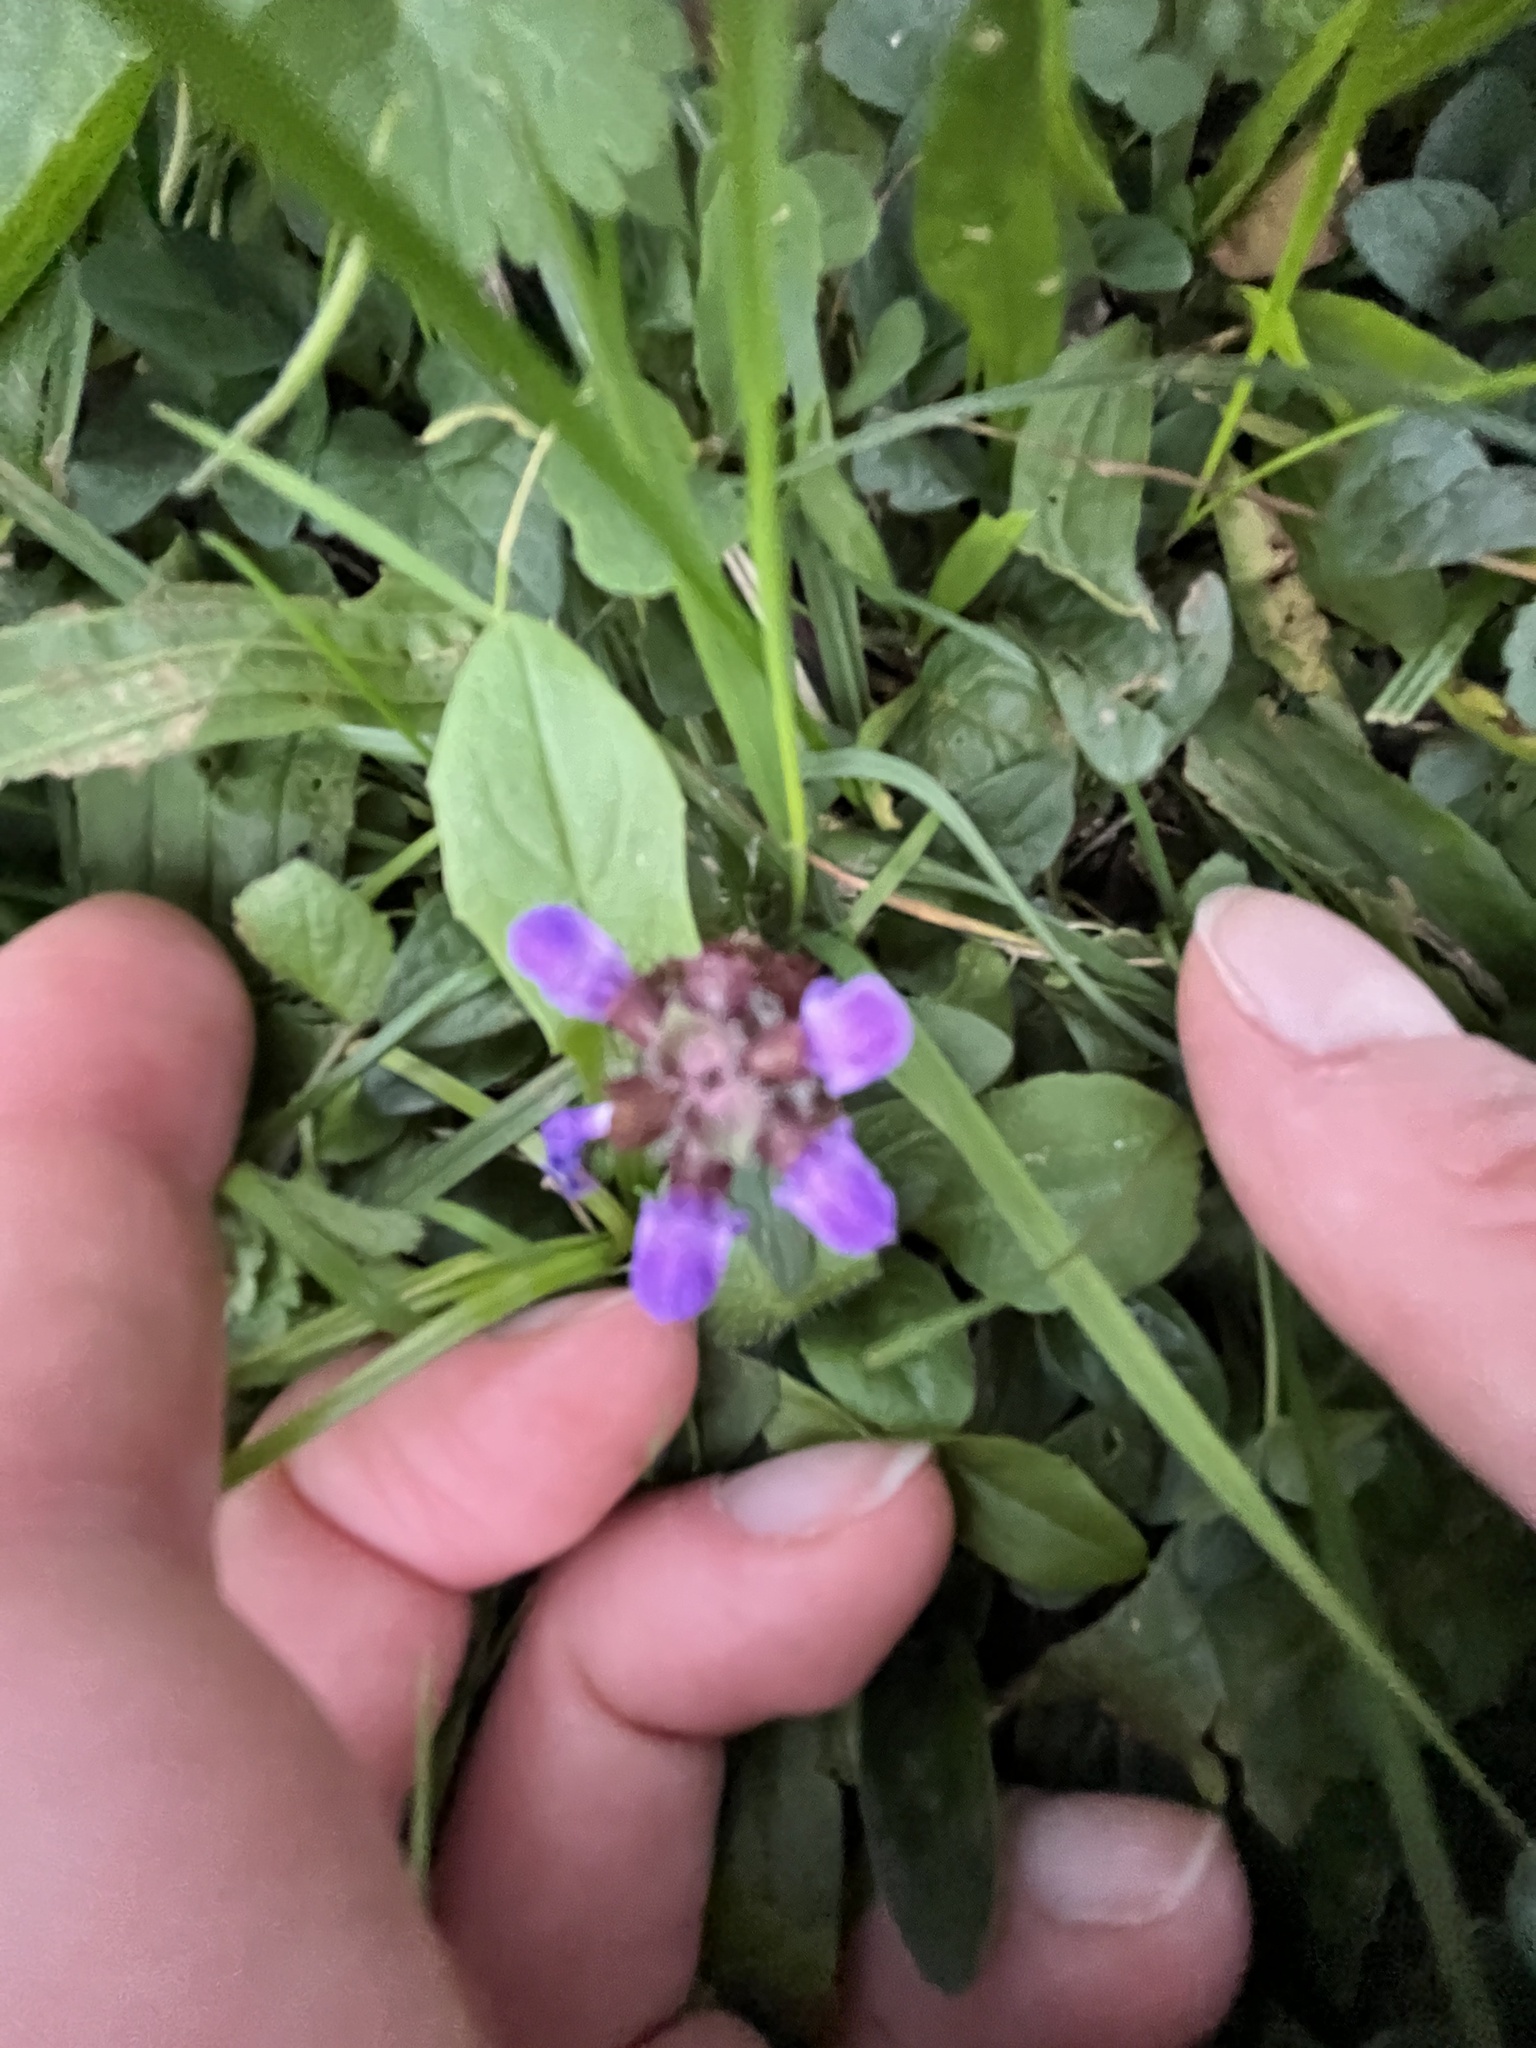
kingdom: Plantae
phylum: Tracheophyta
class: Magnoliopsida
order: Lamiales
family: Lamiaceae
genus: Prunella
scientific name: Prunella vulgaris
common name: Heal-all
